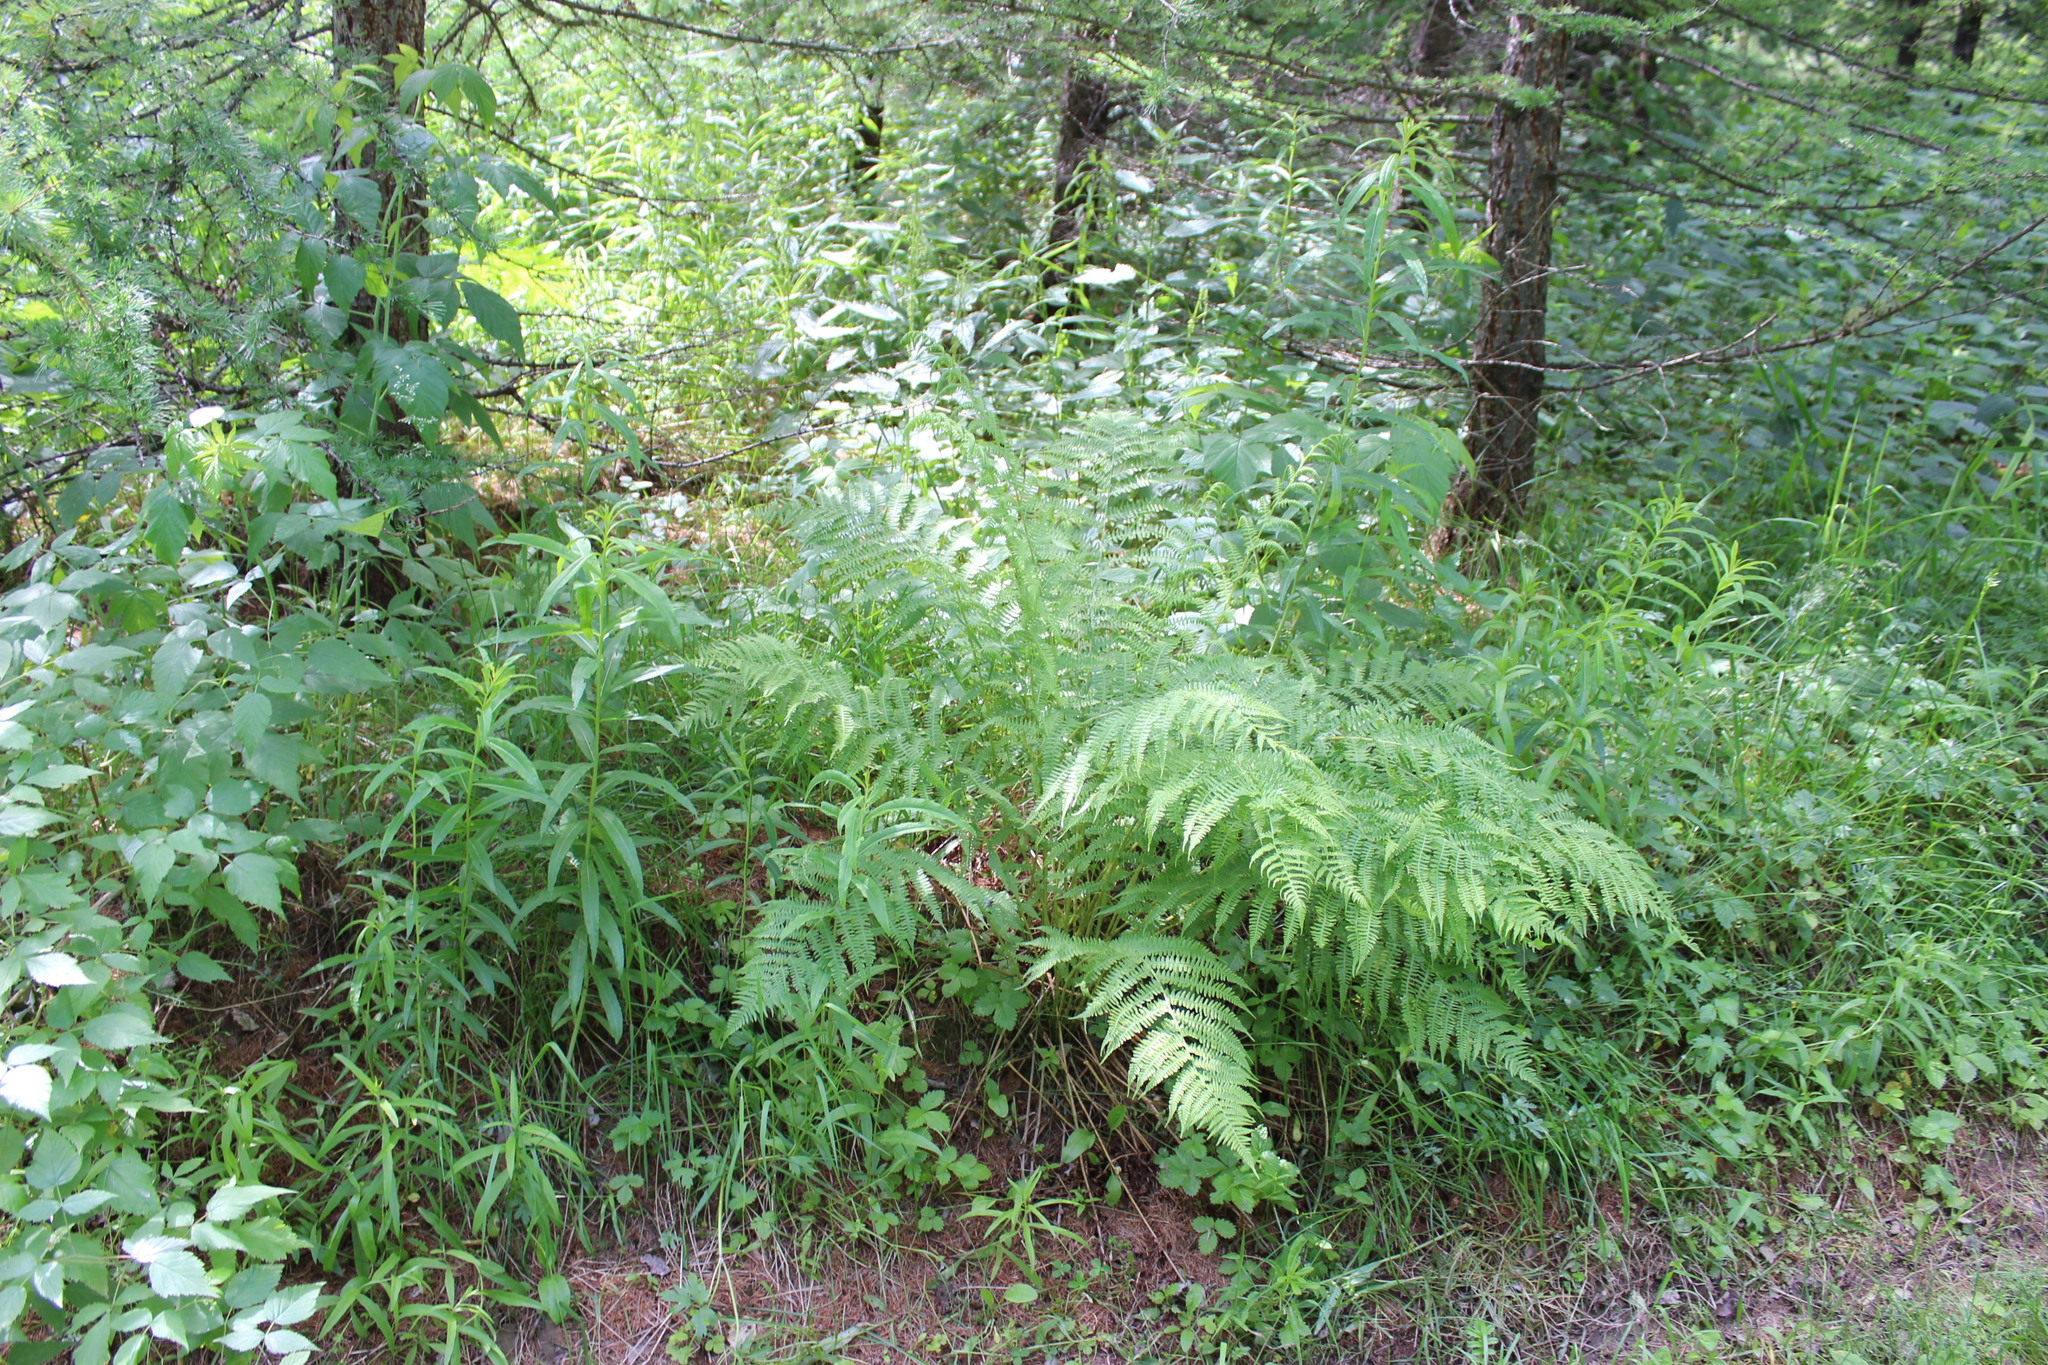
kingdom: Plantae
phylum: Tracheophyta
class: Polypodiopsida
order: Polypodiales
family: Athyriaceae
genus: Athyrium
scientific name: Athyrium filix-femina
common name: Lady fern
